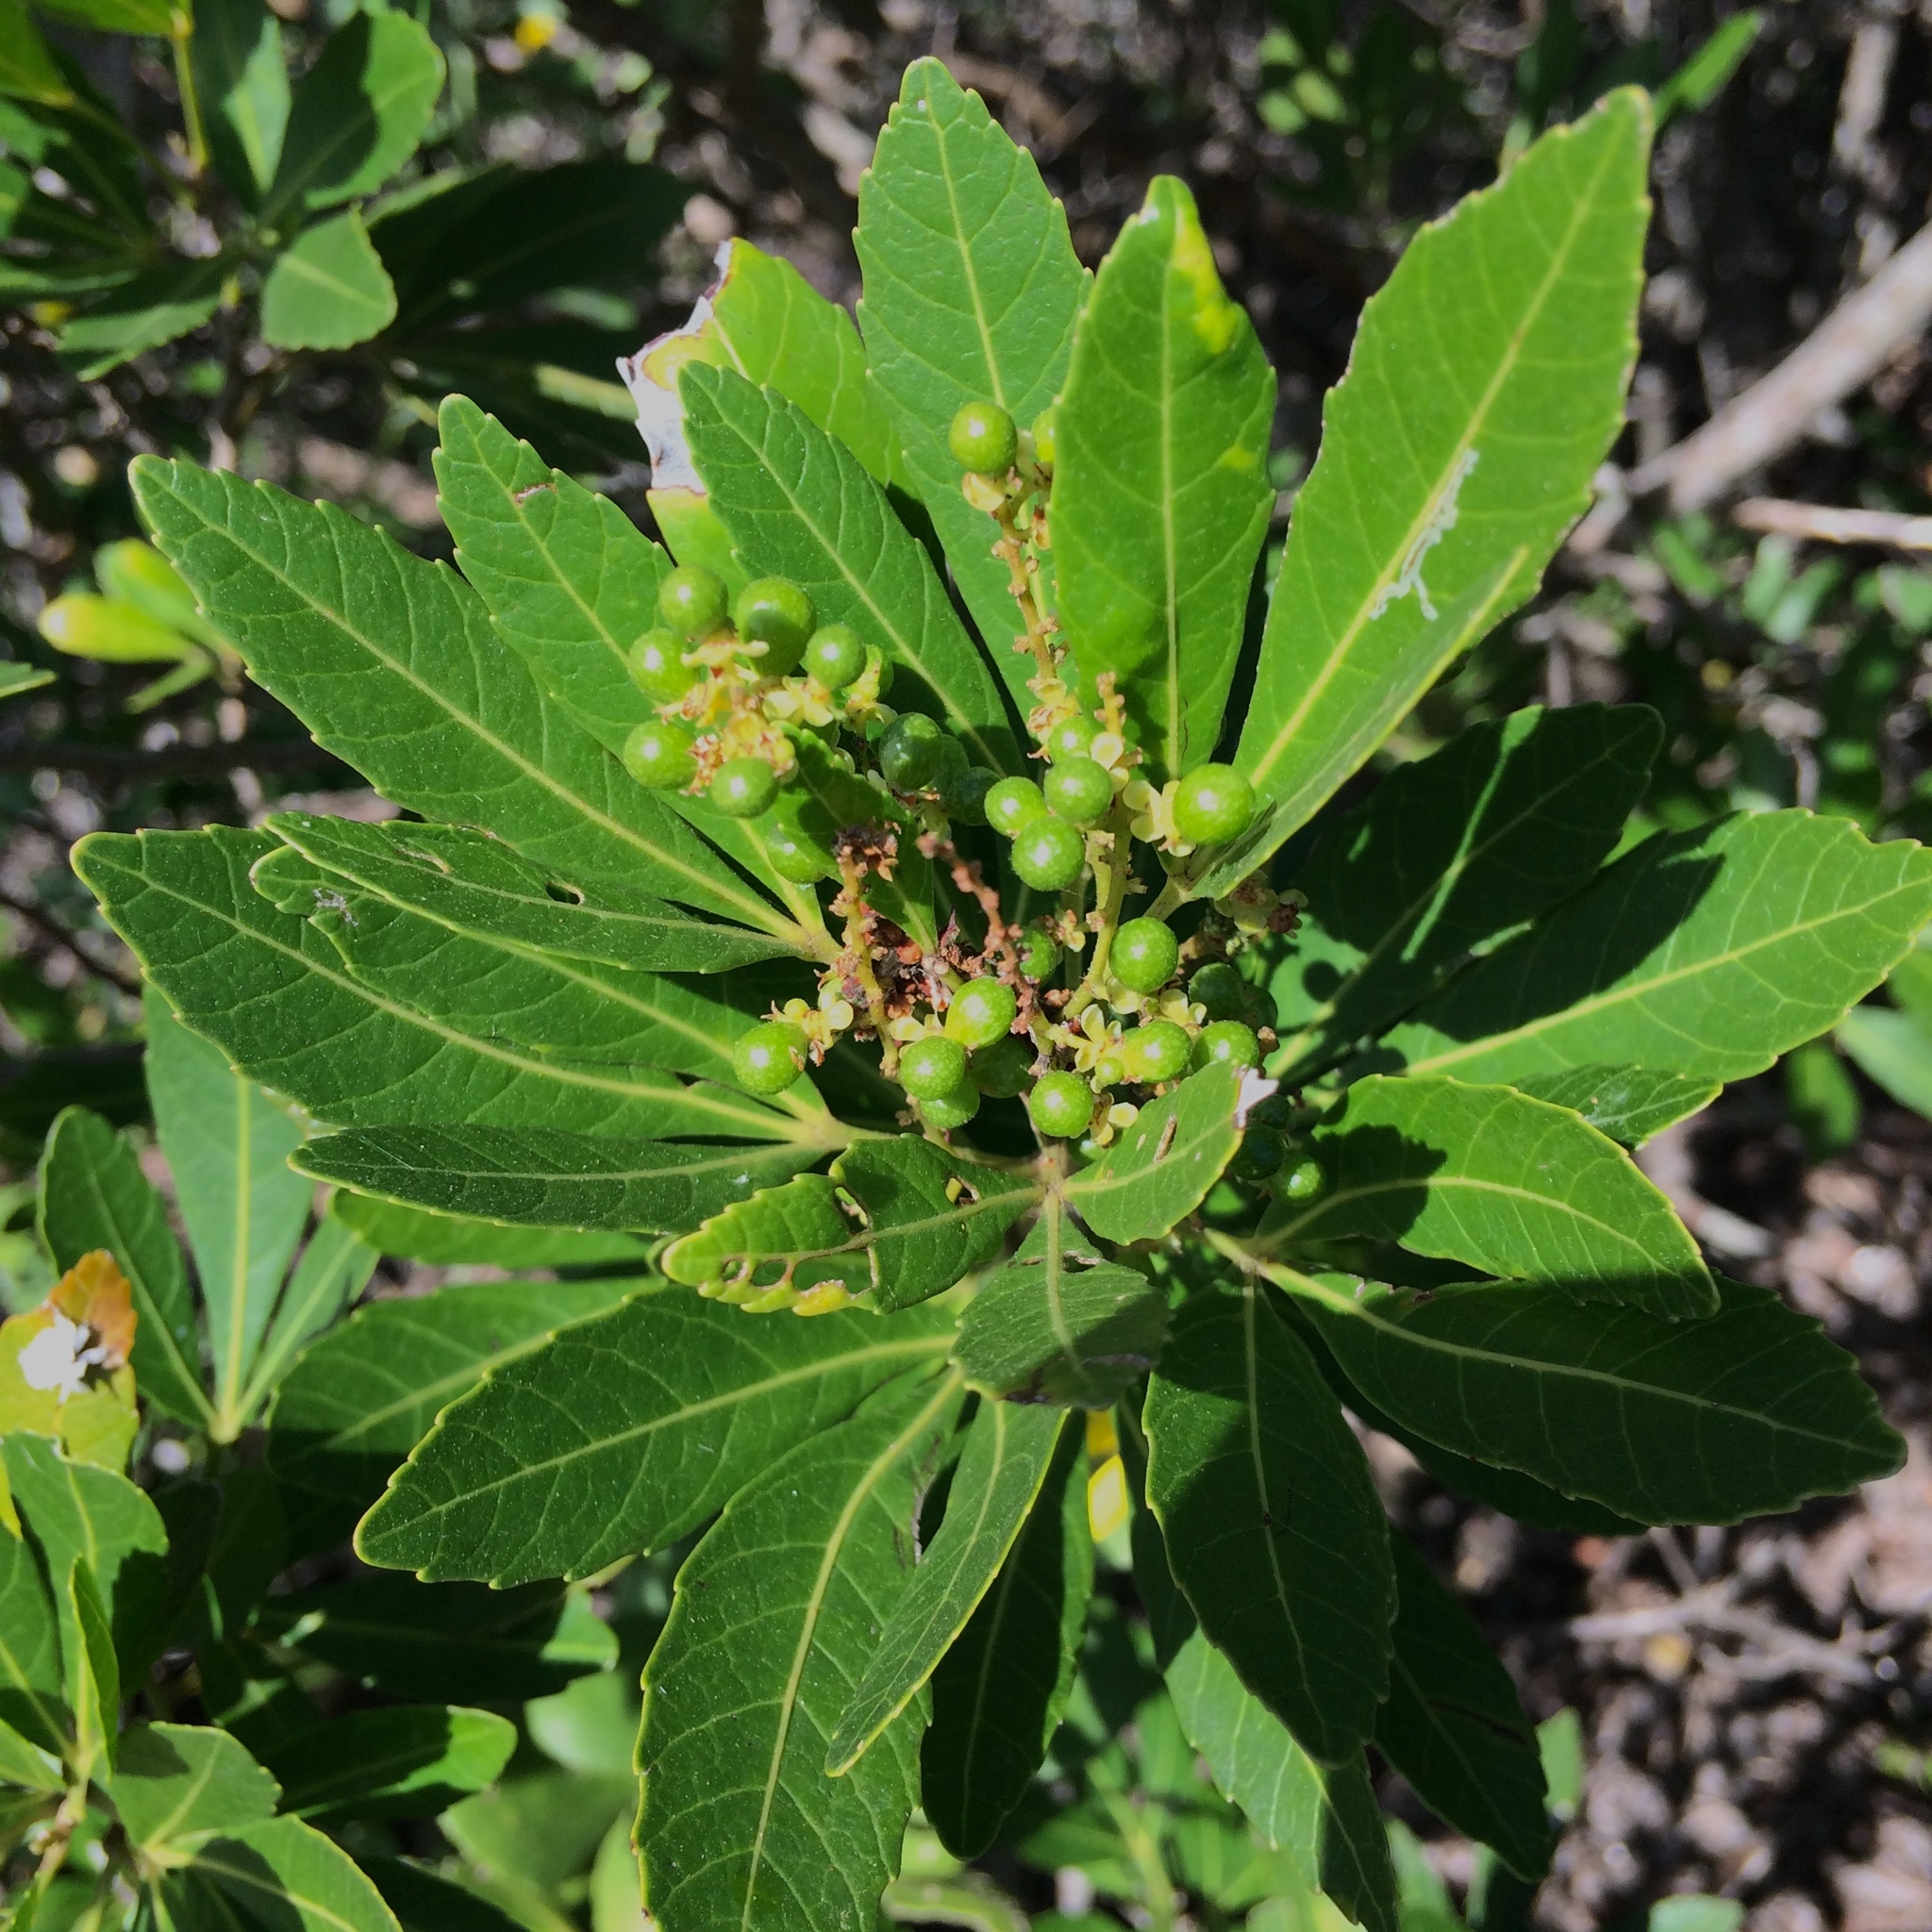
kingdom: Plantae
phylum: Tracheophyta
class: Magnoliopsida
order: Sapindales
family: Sapindaceae
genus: Allophylus
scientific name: Allophylus natalensis
